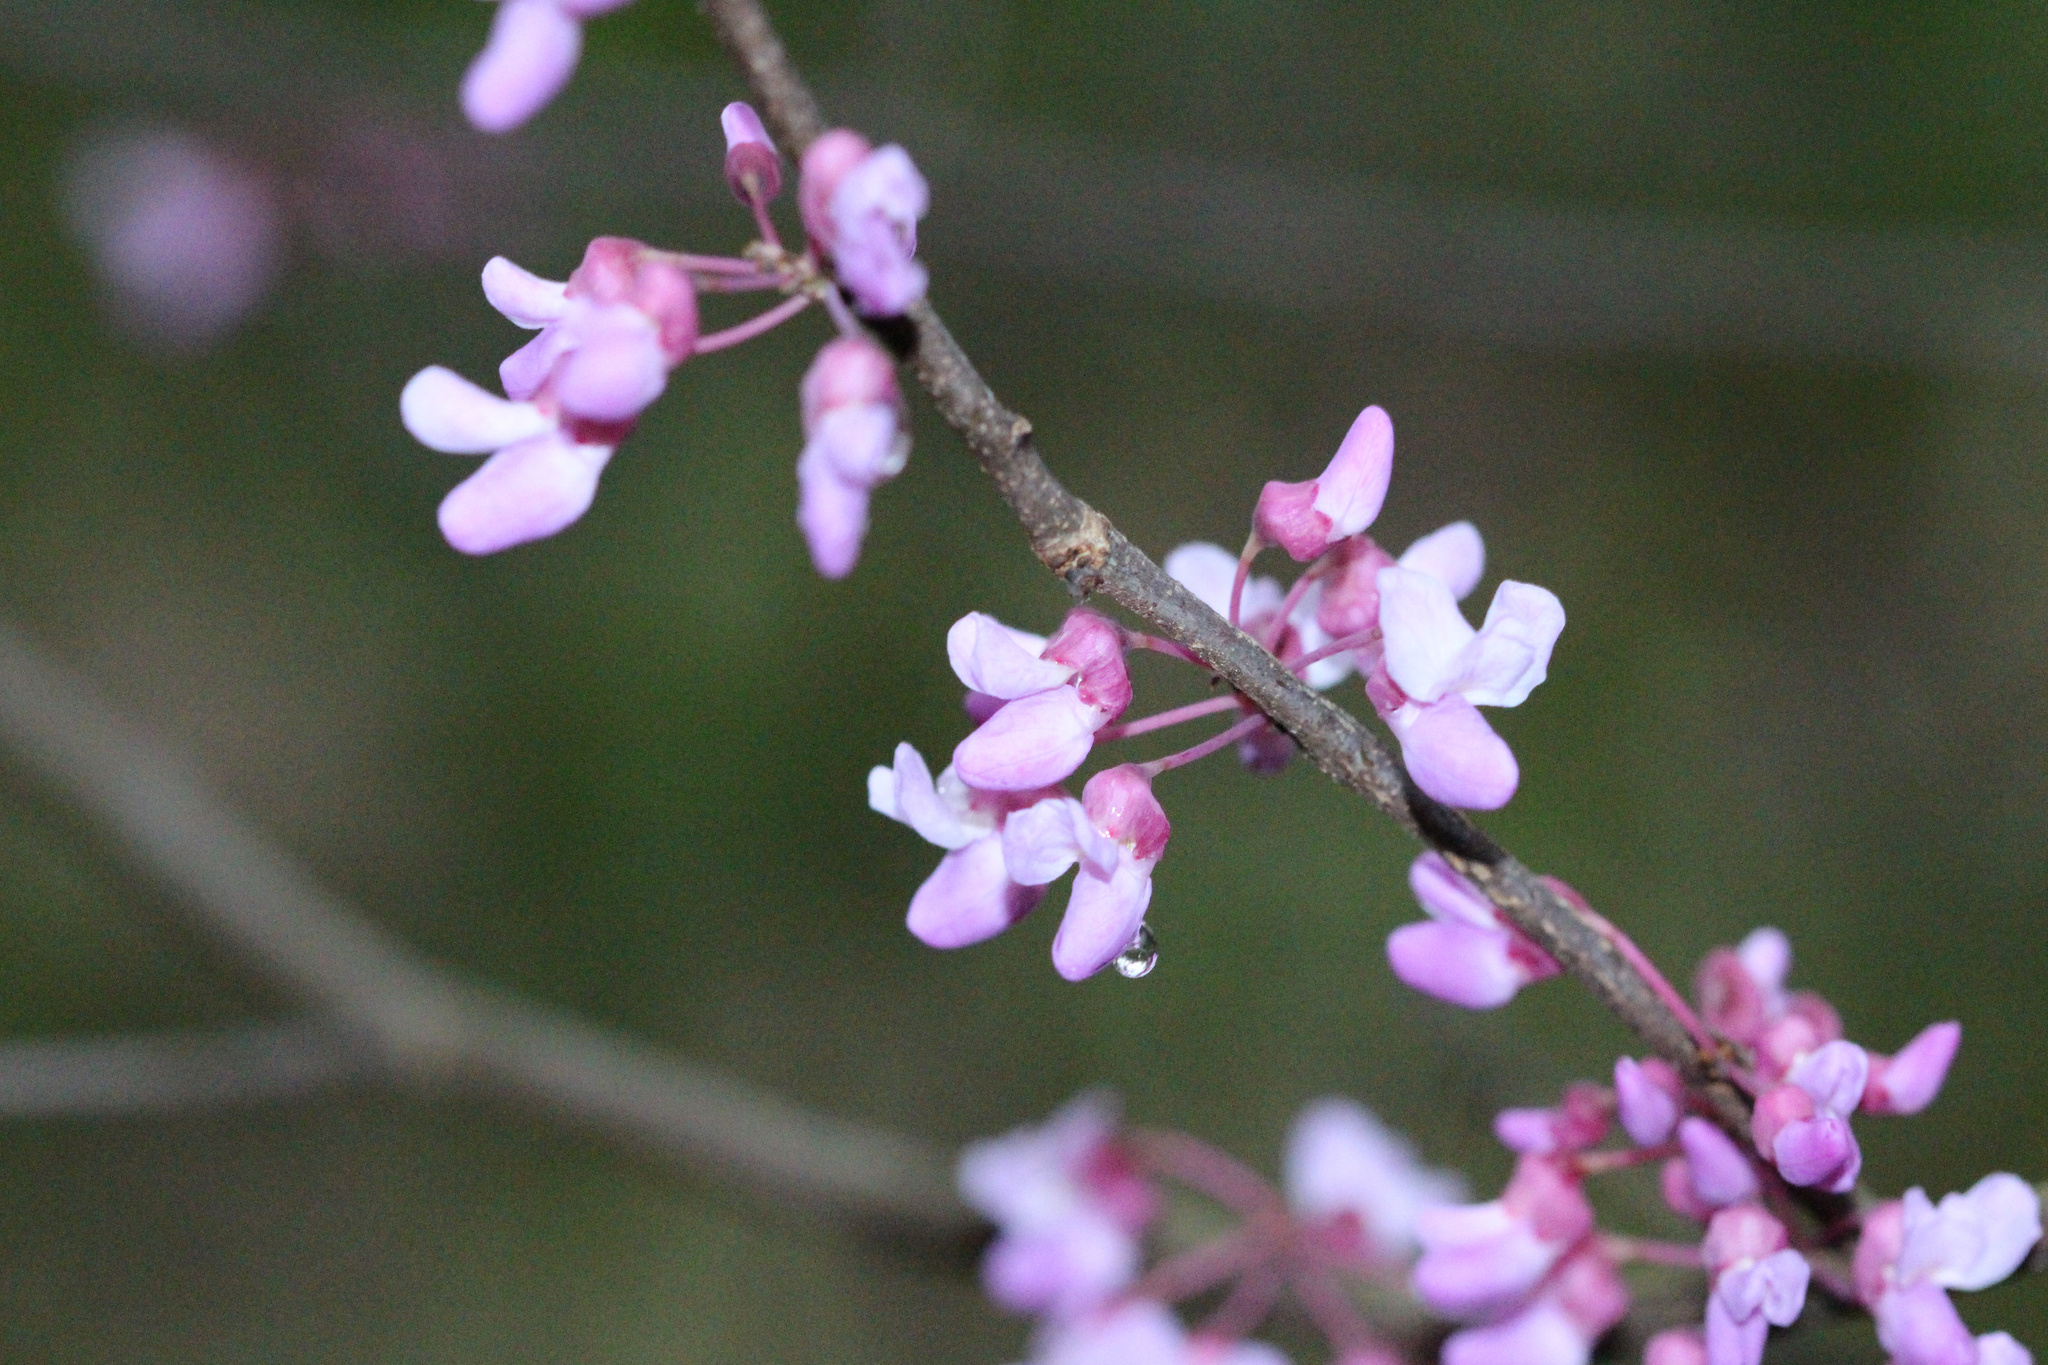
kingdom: Plantae
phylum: Tracheophyta
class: Magnoliopsida
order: Fabales
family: Fabaceae
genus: Cercis
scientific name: Cercis canadensis
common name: Eastern redbud
